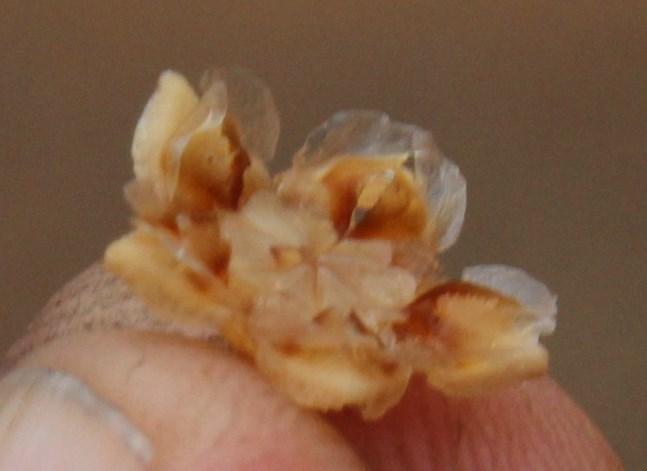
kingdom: Plantae
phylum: Tracheophyta
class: Magnoliopsida
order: Caryophyllales
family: Aizoaceae
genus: Drosanthemum
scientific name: Drosanthemum lique
